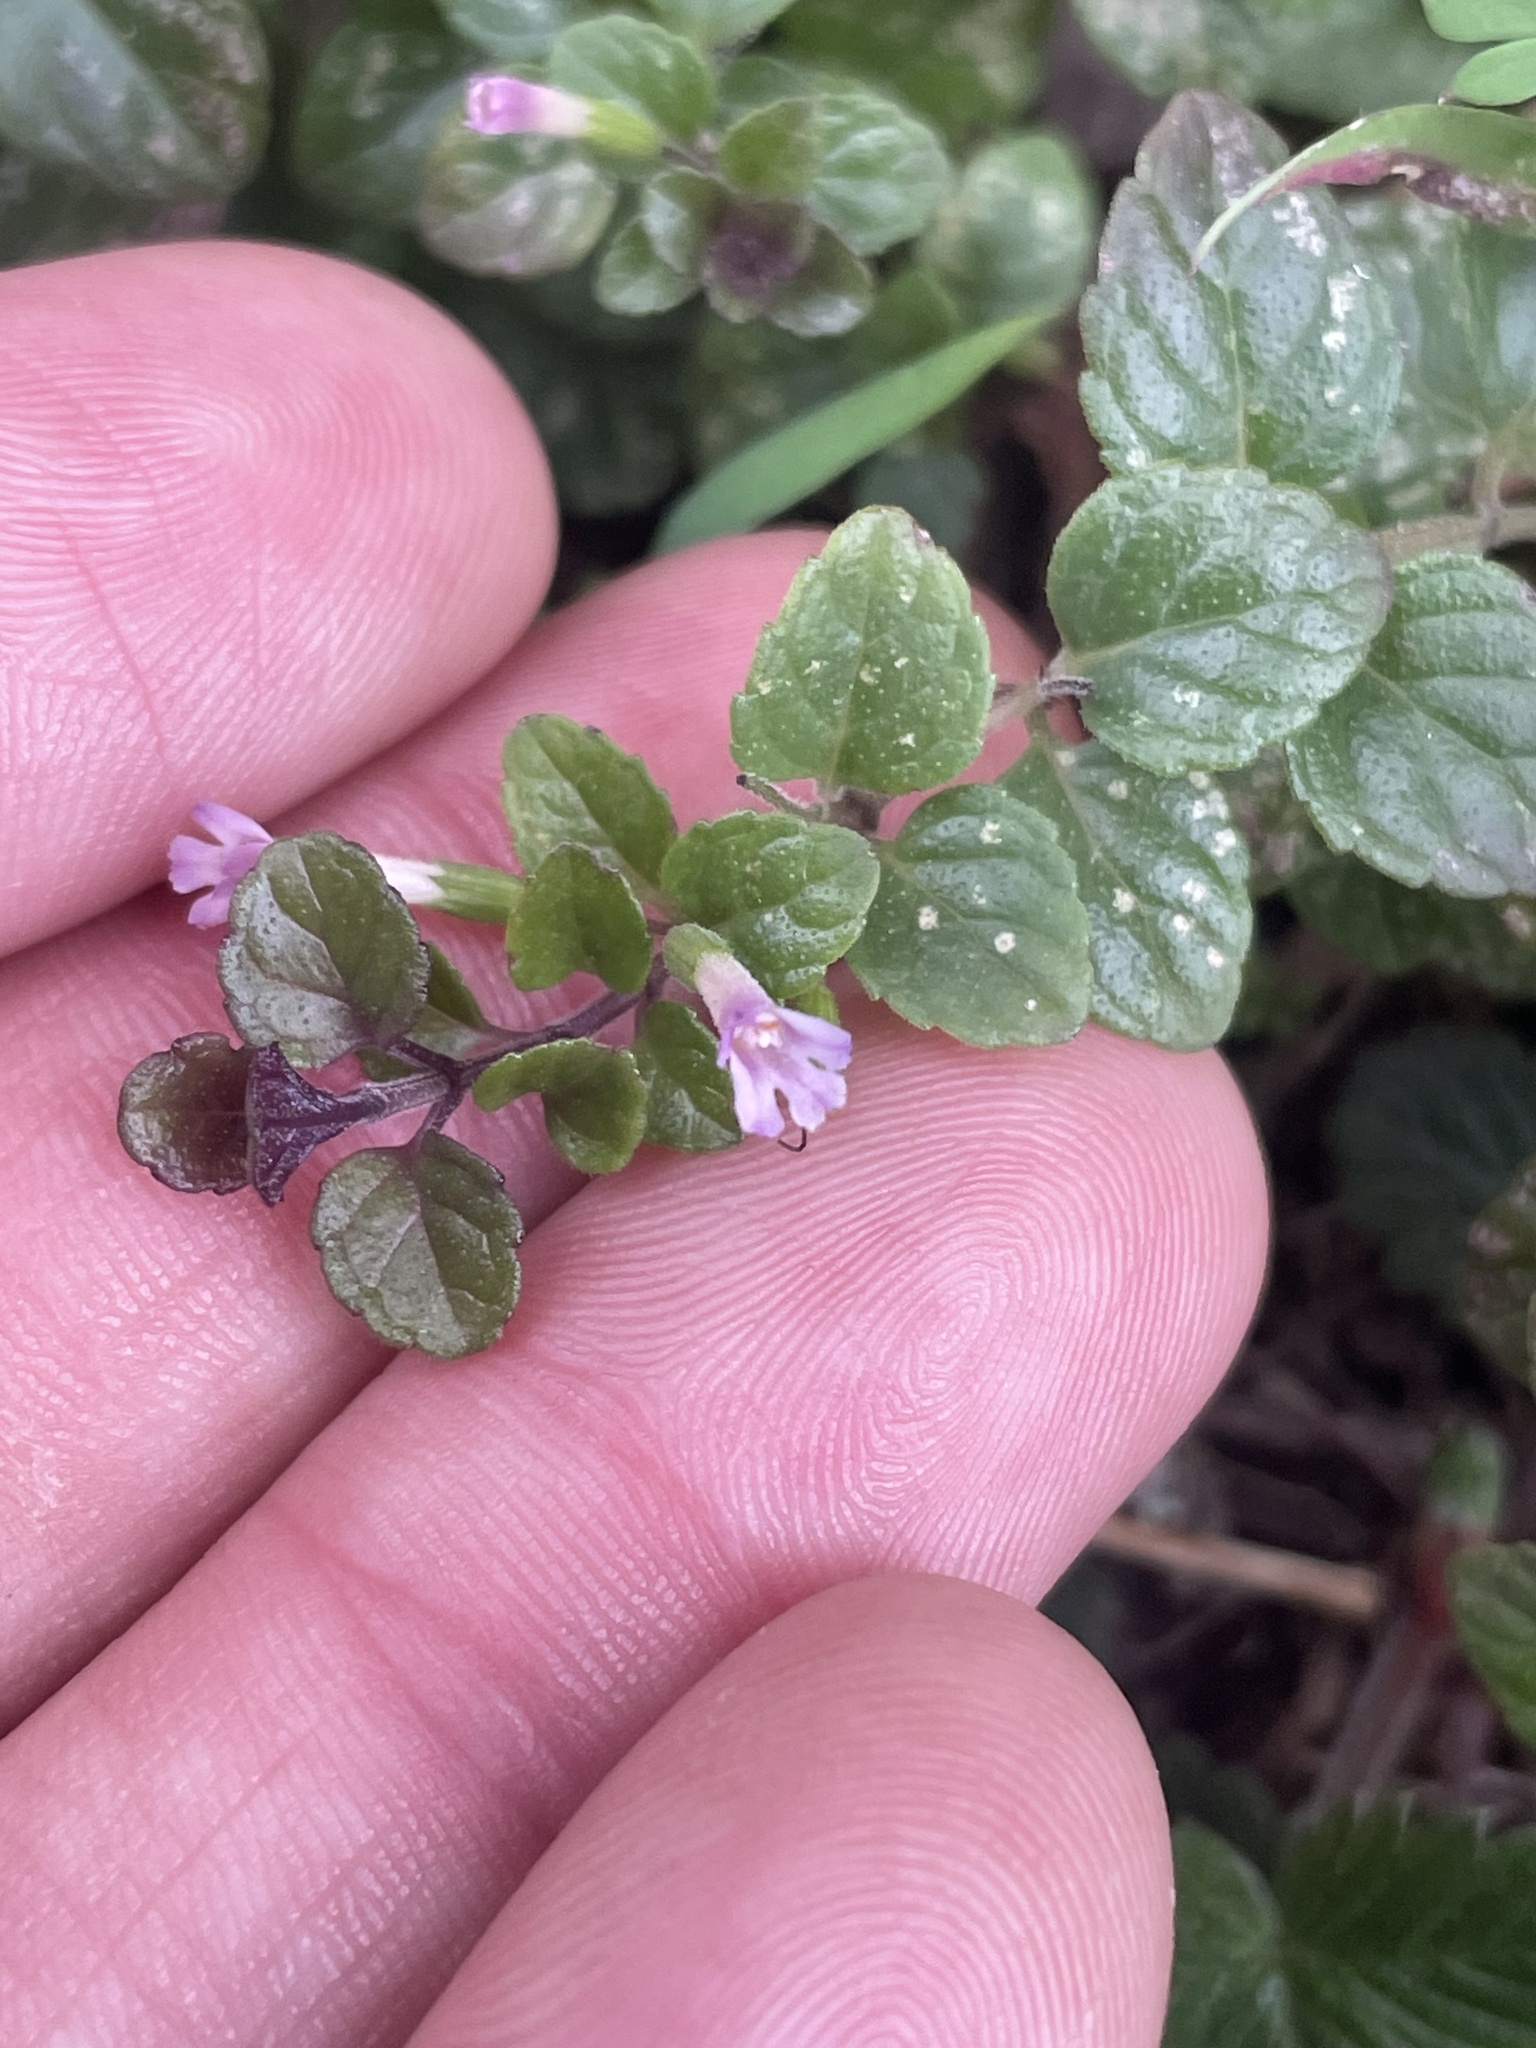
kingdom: Plantae
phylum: Tracheophyta
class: Magnoliopsida
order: Lamiales
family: Lamiaceae
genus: Micromeria
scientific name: Micromeria douglasii
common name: Yerba buena
